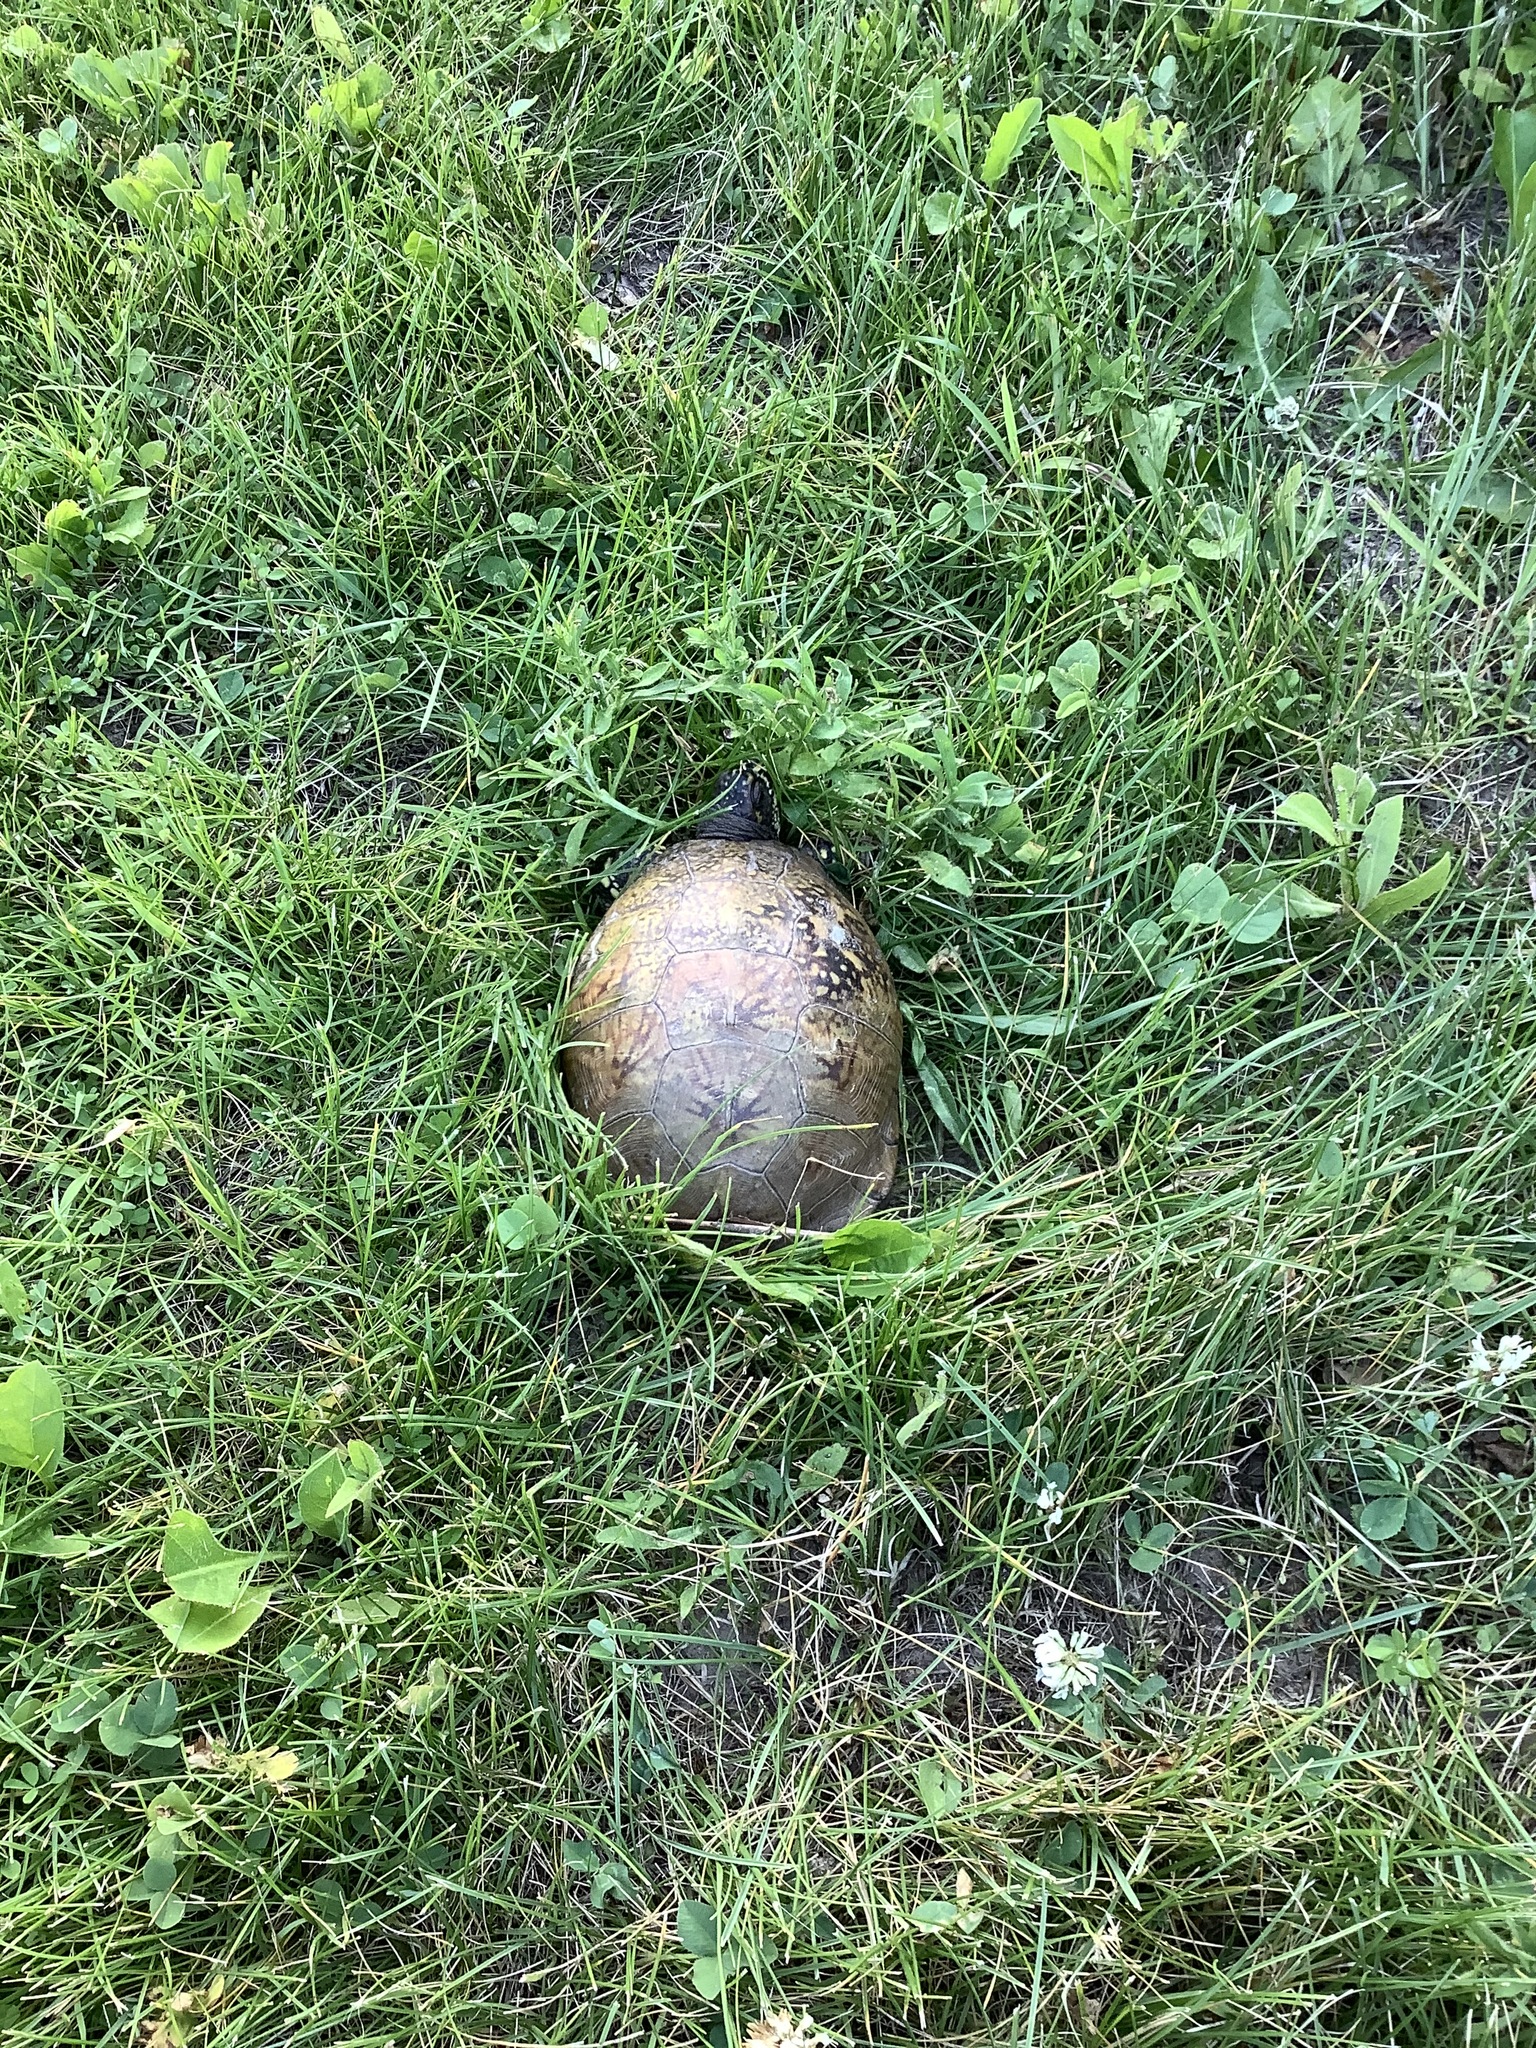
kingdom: Animalia
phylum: Chordata
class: Testudines
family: Emydidae
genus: Terrapene
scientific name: Terrapene carolina
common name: Common box turtle
